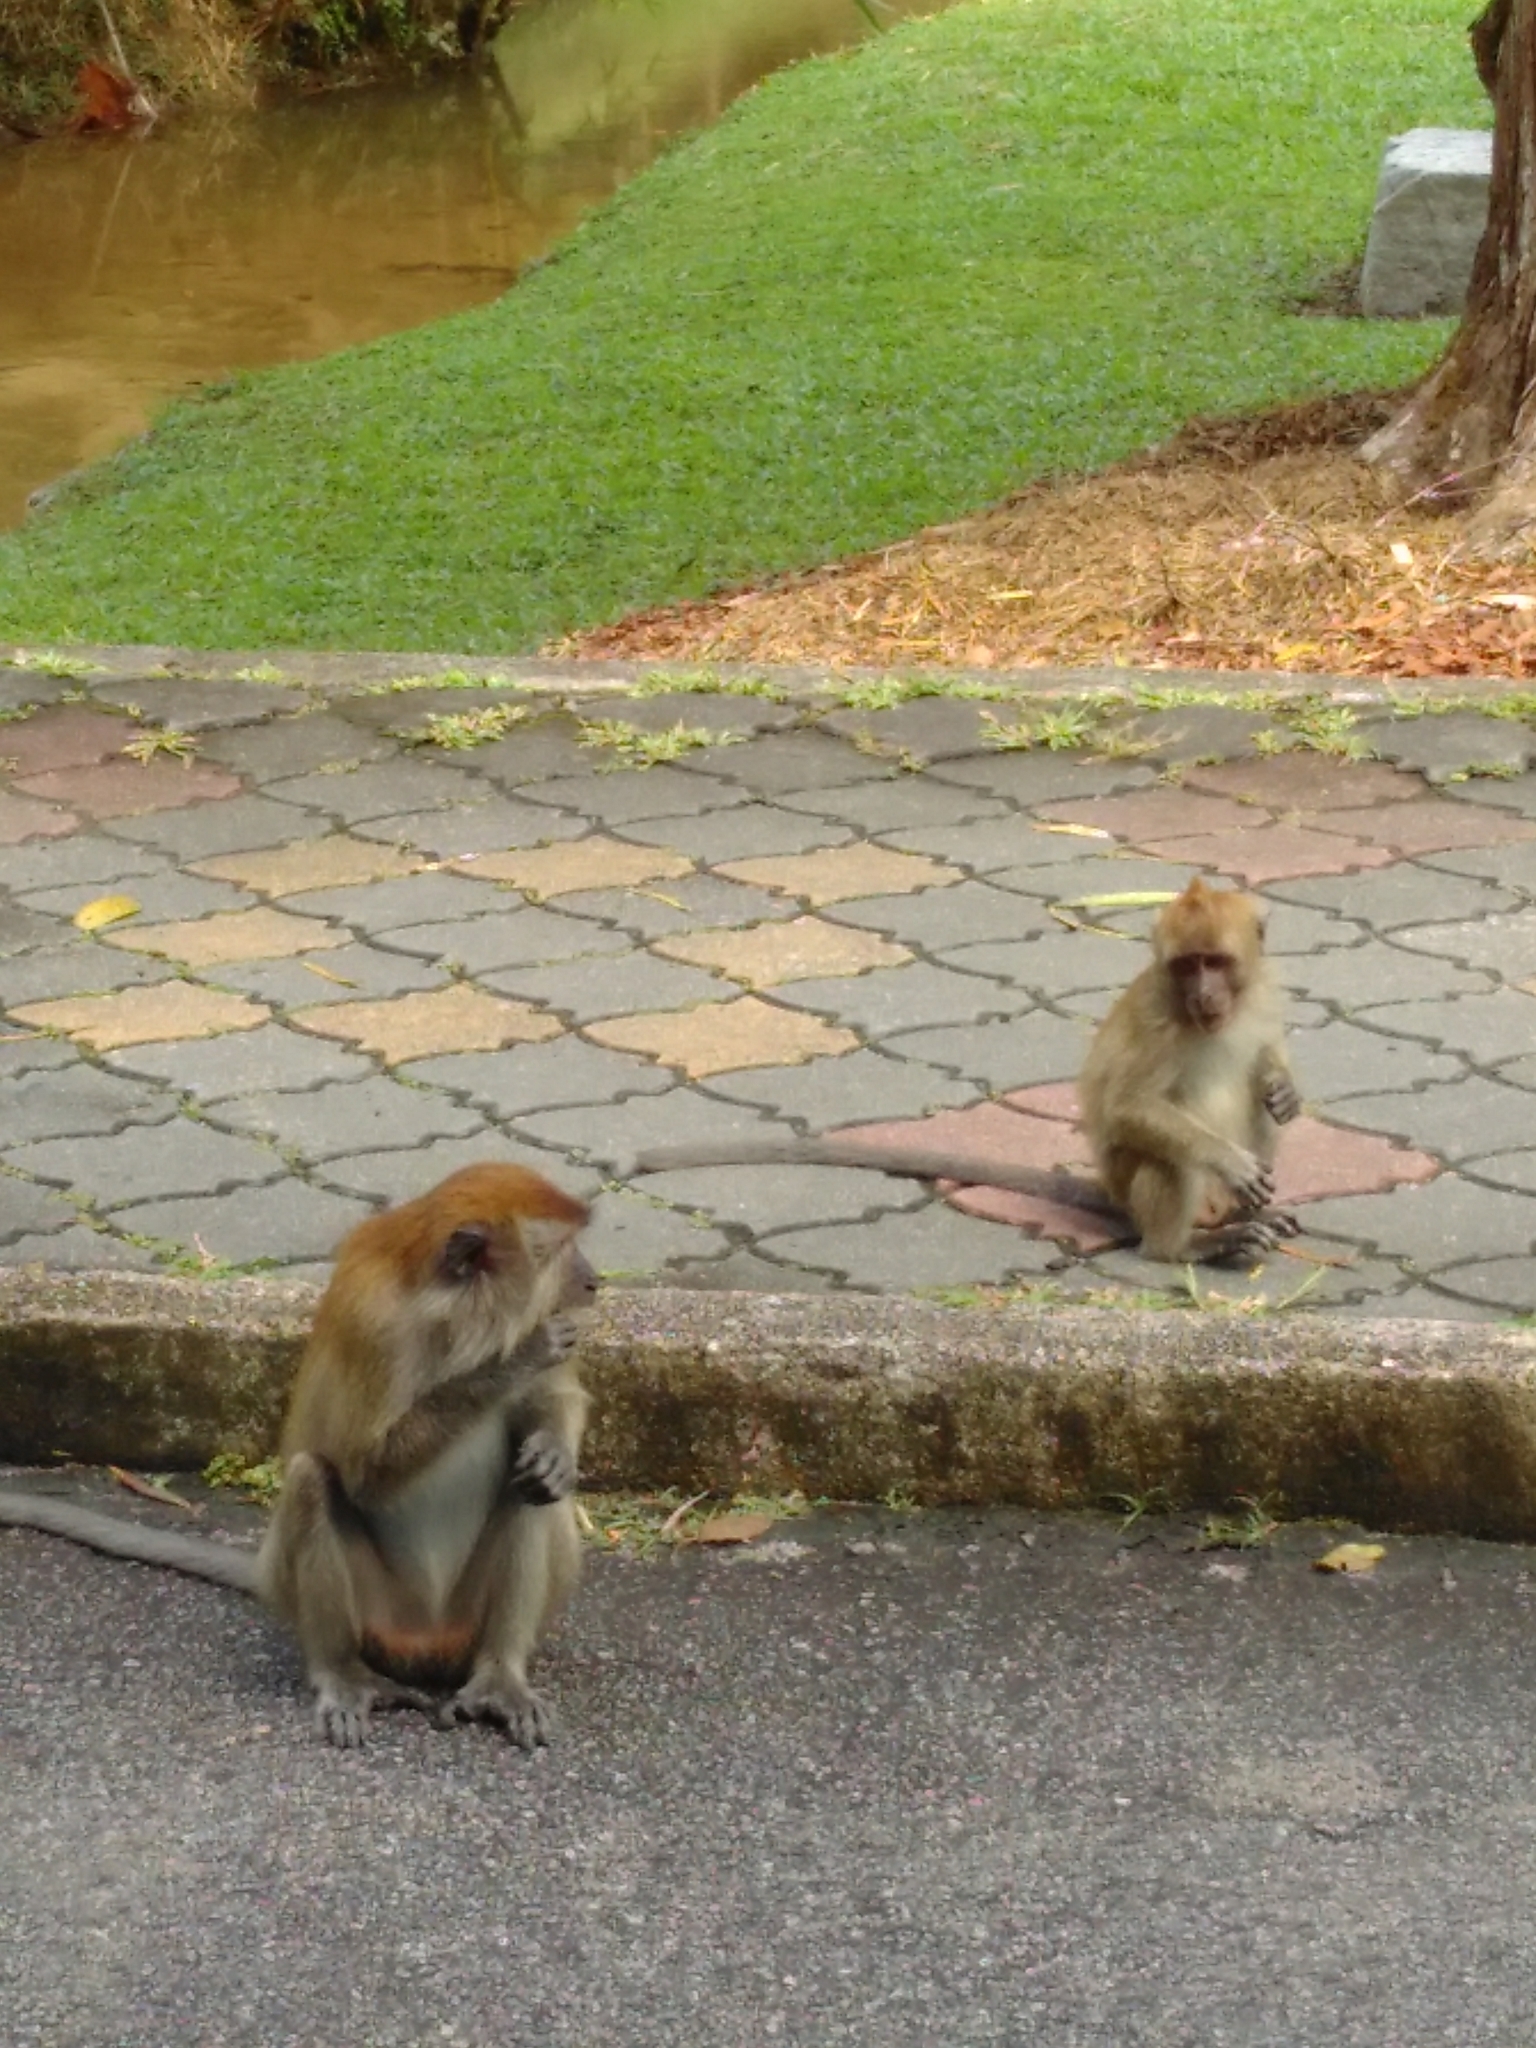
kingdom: Animalia
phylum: Chordata
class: Mammalia
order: Primates
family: Cercopithecidae
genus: Macaca
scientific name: Macaca fascicularis
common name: Crab-eating macaque
